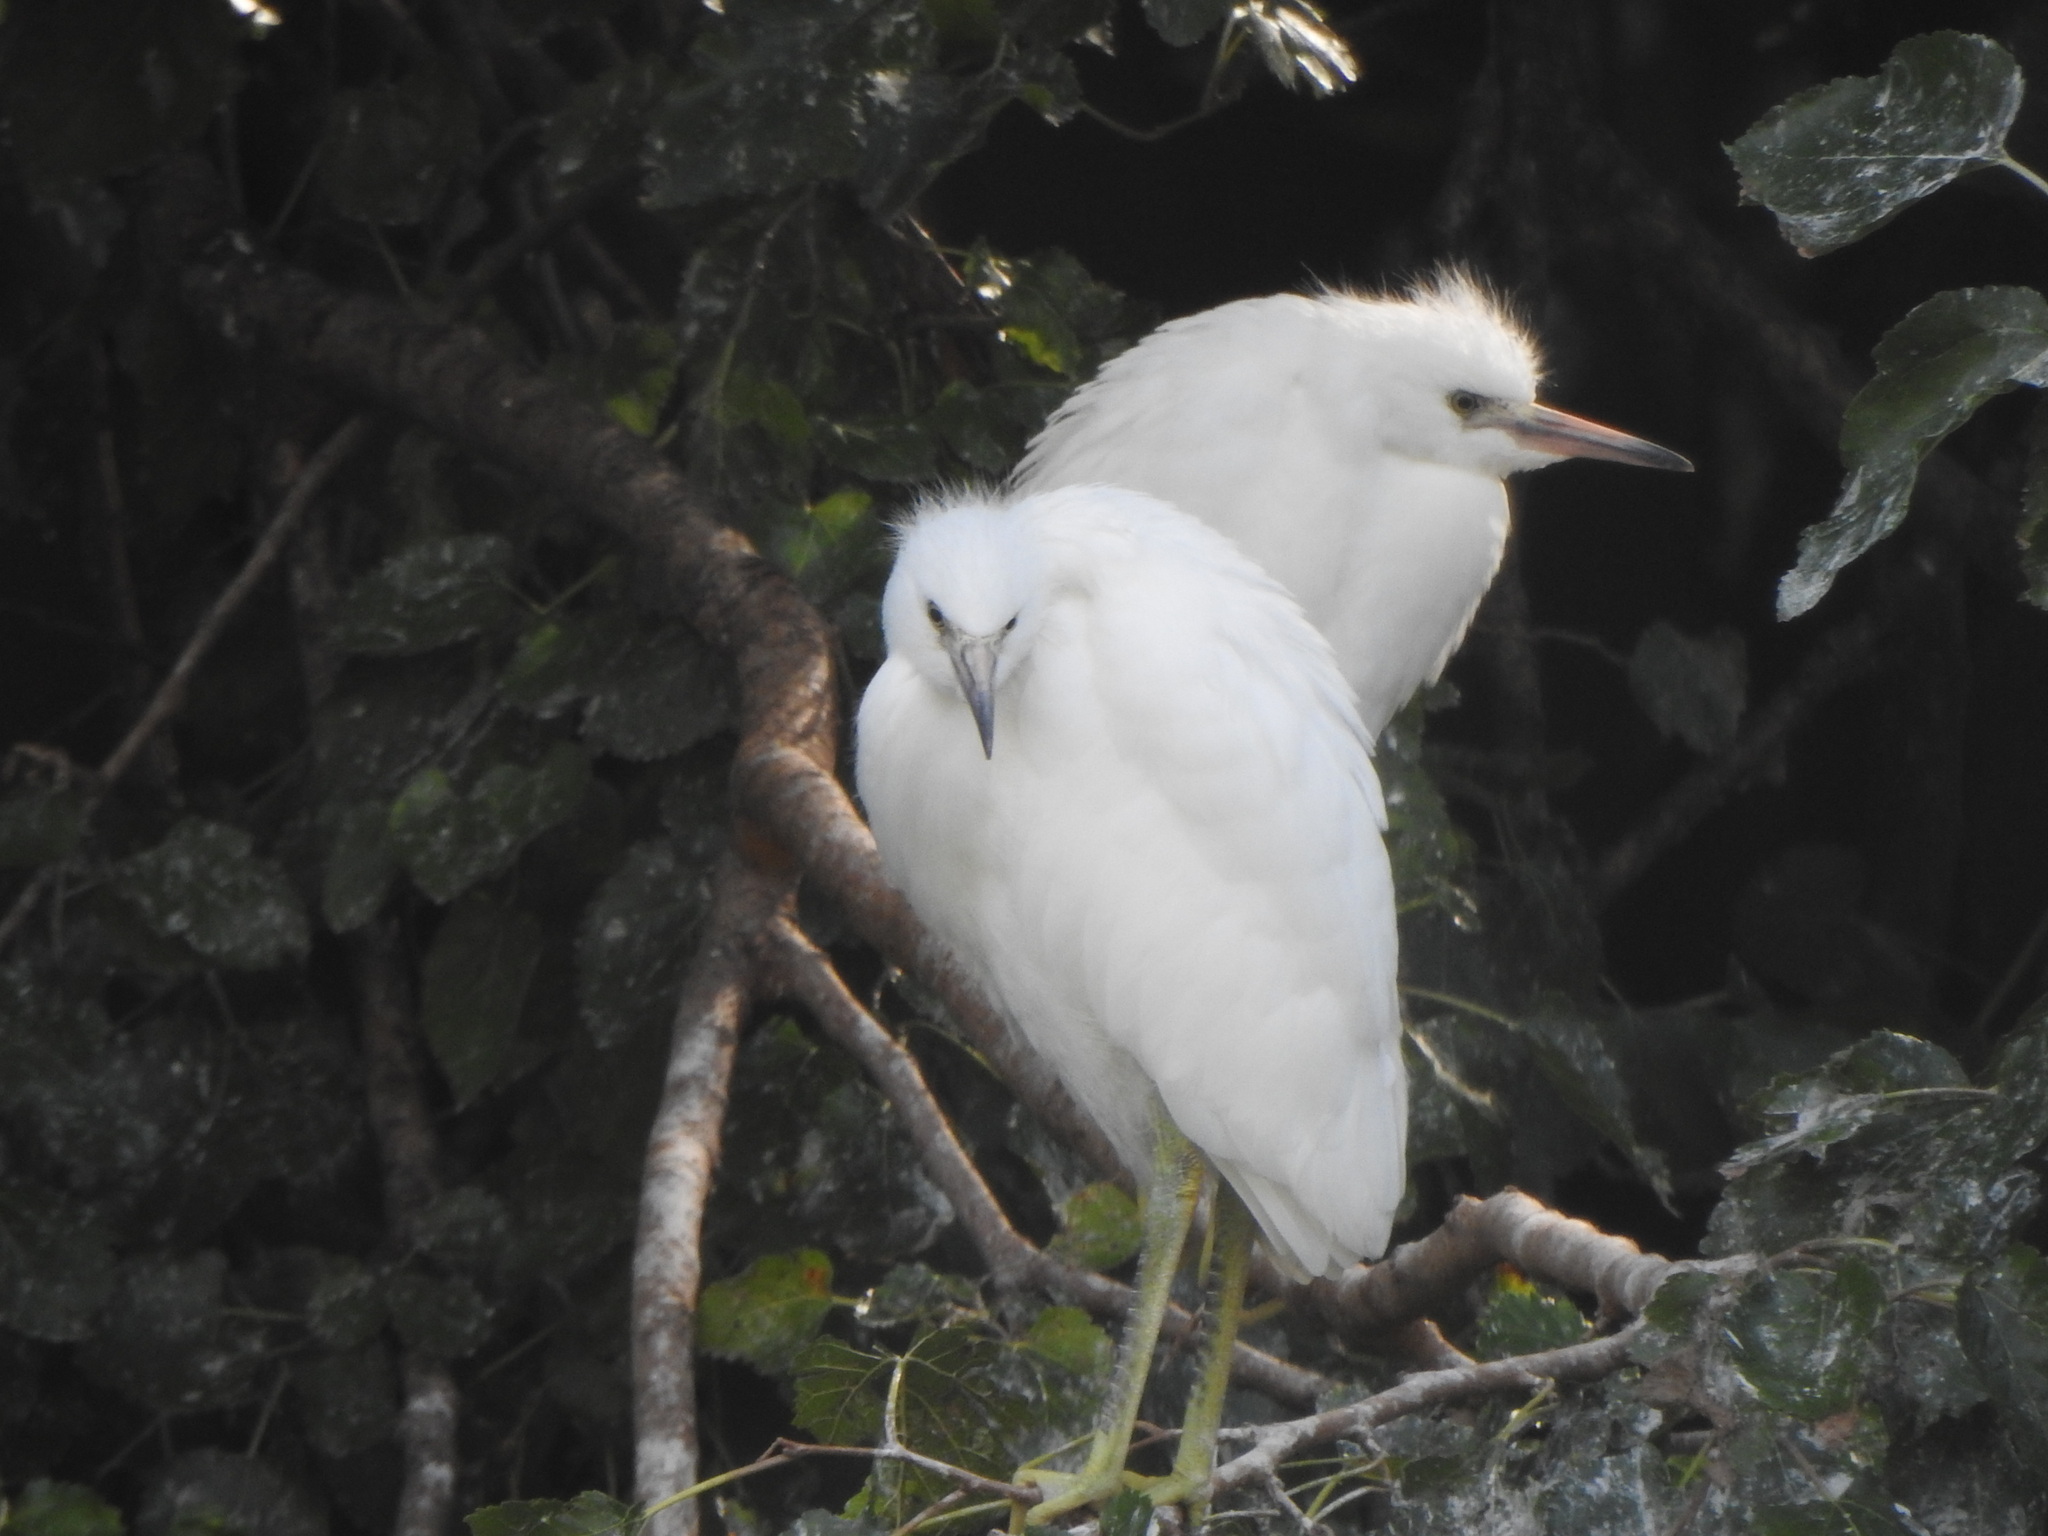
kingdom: Animalia
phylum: Chordata
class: Aves
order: Pelecaniformes
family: Ardeidae
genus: Egretta
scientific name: Egretta thula
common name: Snowy egret
